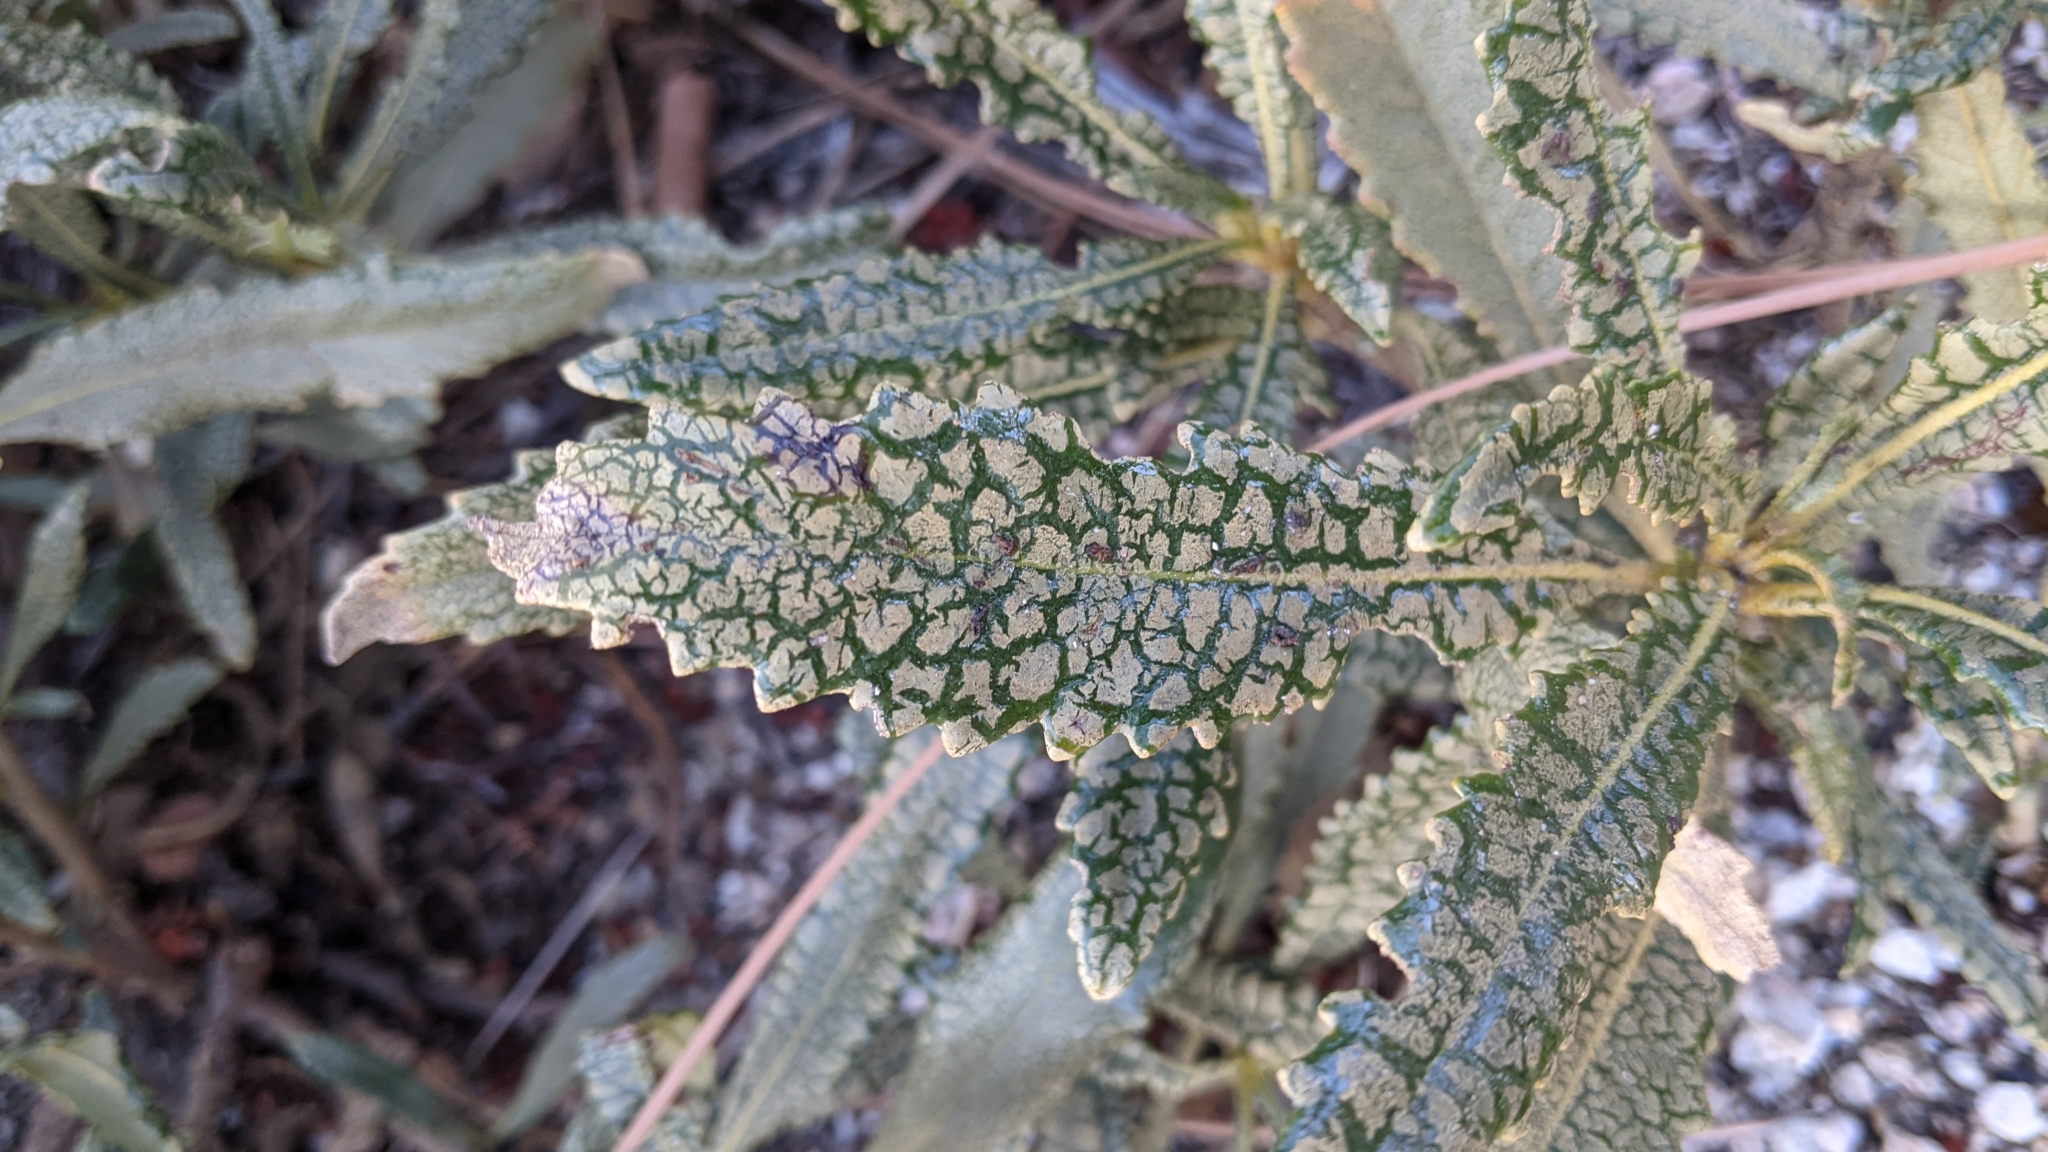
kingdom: Plantae
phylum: Tracheophyta
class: Magnoliopsida
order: Boraginales
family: Namaceae
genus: Eriodictyon
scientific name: Eriodictyon trichocalyx
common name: Hairy yerba-santa
